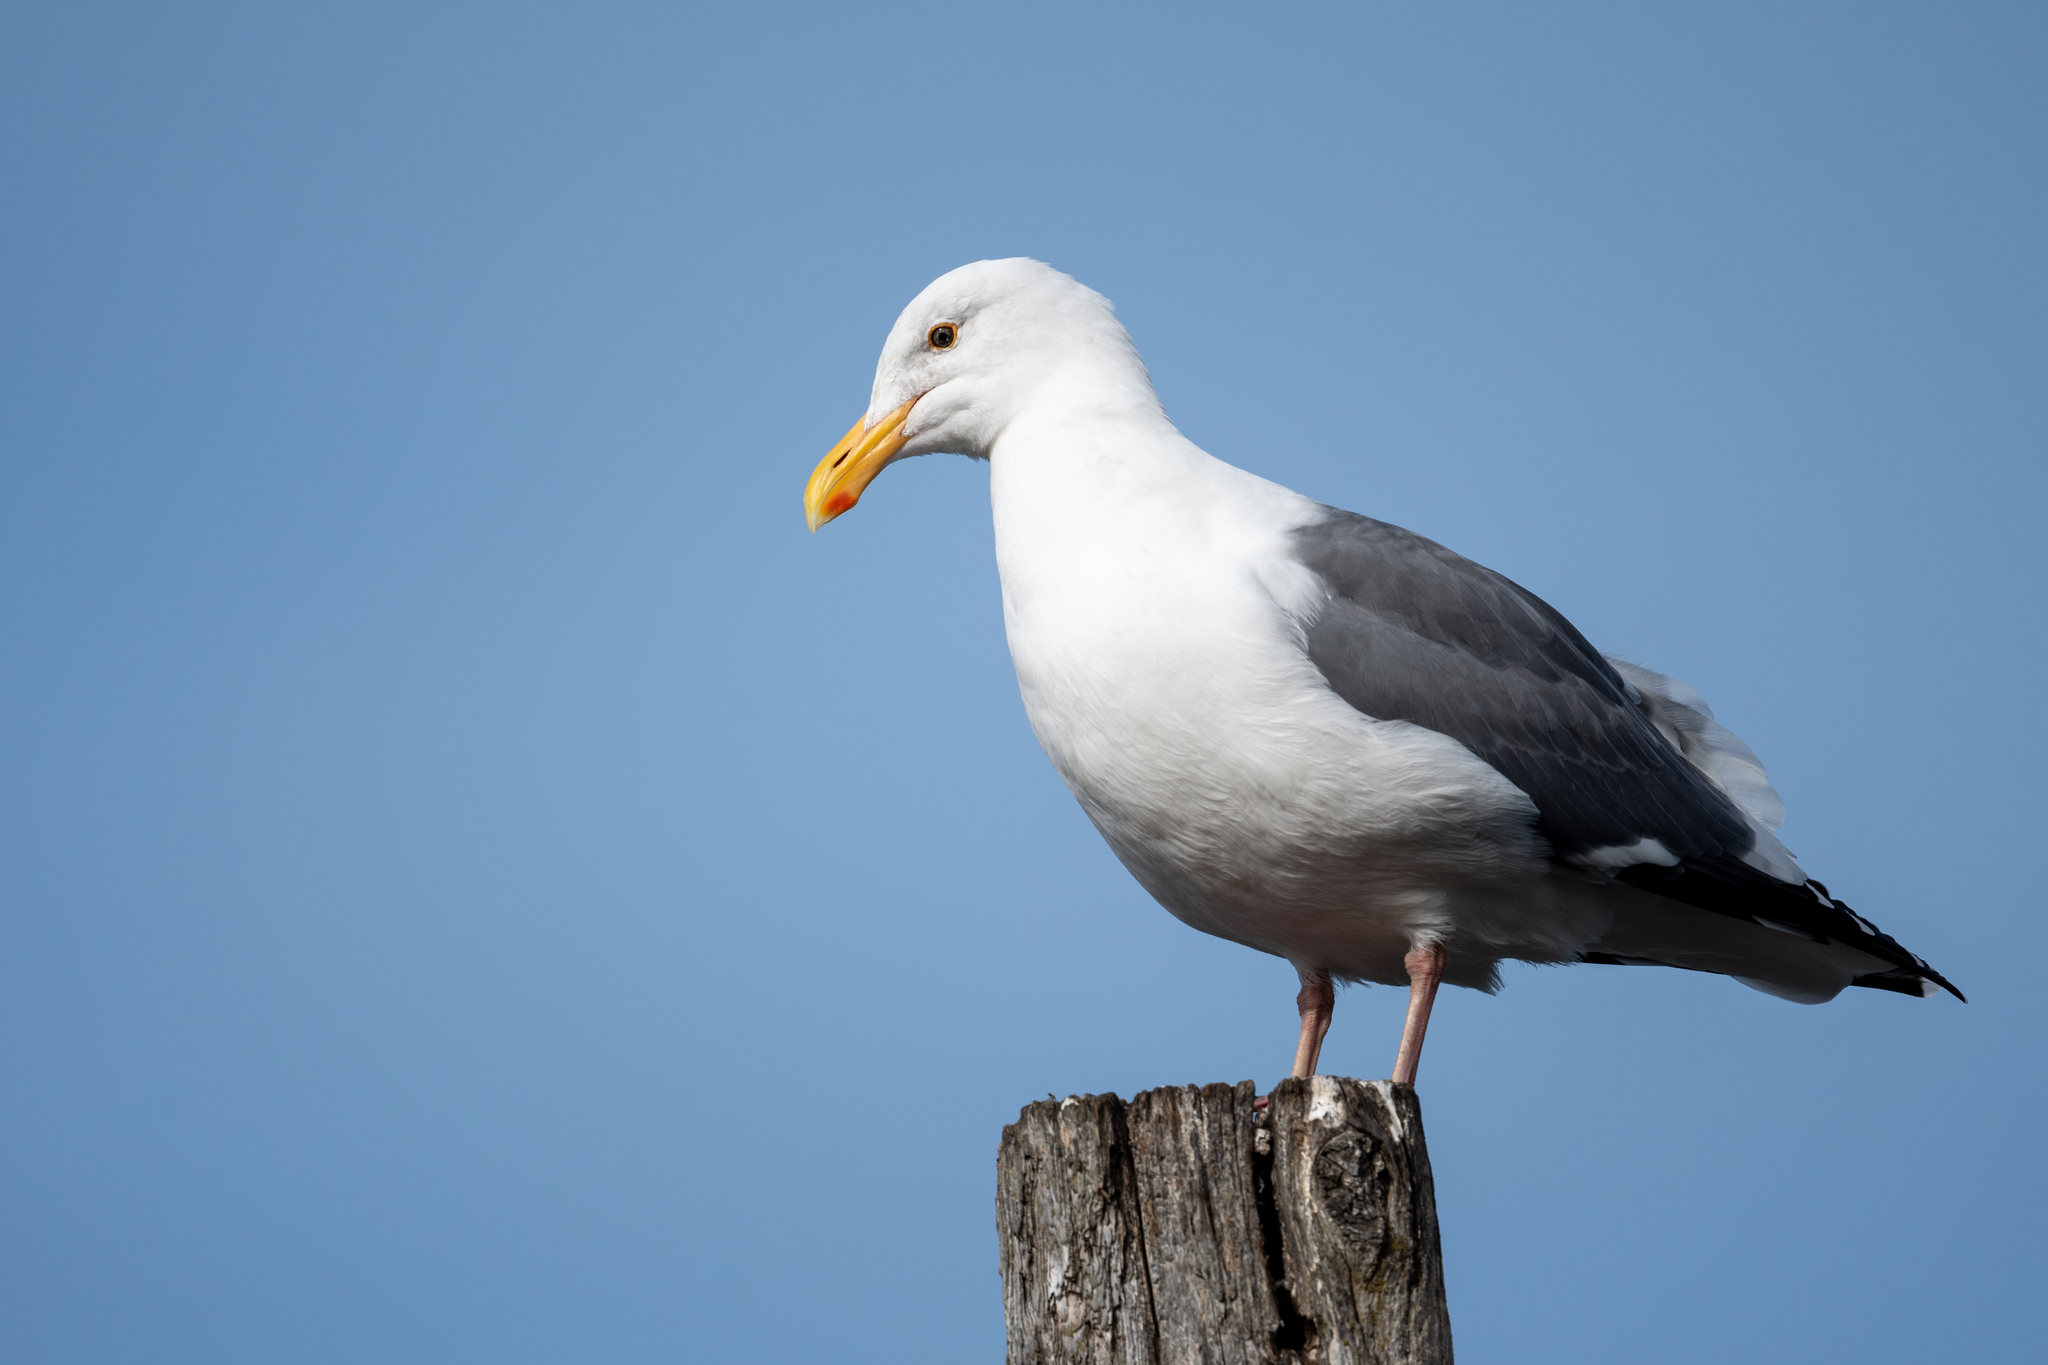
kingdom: Animalia
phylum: Chordata
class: Aves
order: Charadriiformes
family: Laridae
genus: Larus
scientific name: Larus occidentalis
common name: Western gull
